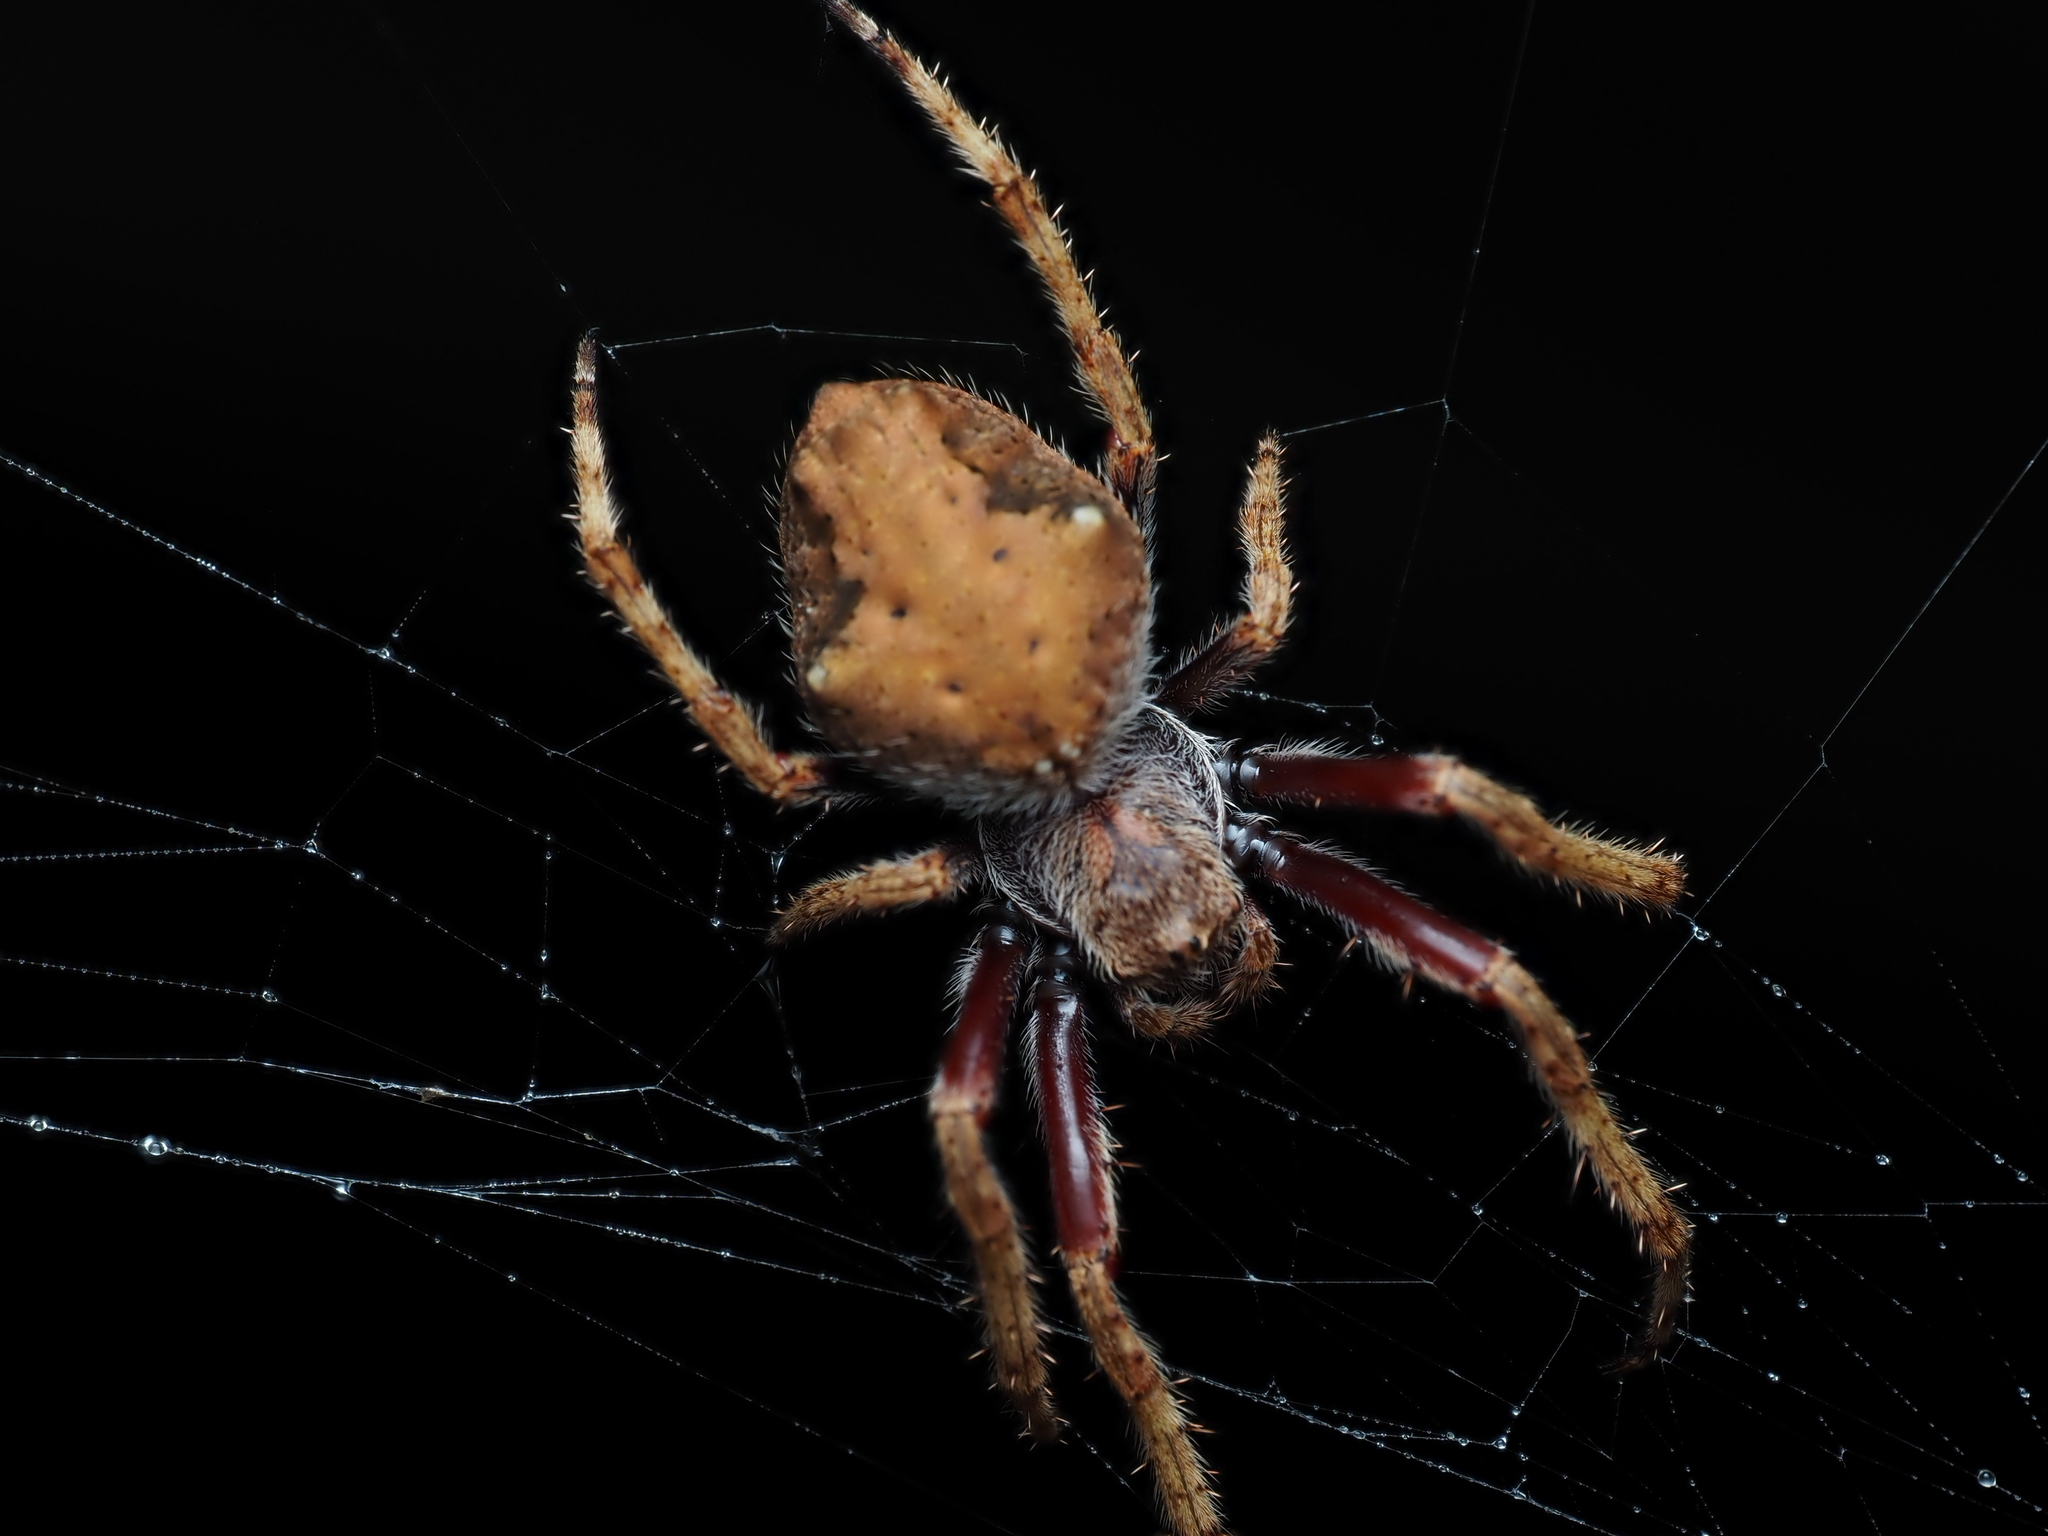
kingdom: Animalia
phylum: Arthropoda
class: Arachnida
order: Araneae
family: Araneidae
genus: Eriophora
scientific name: Eriophora pustulosa
